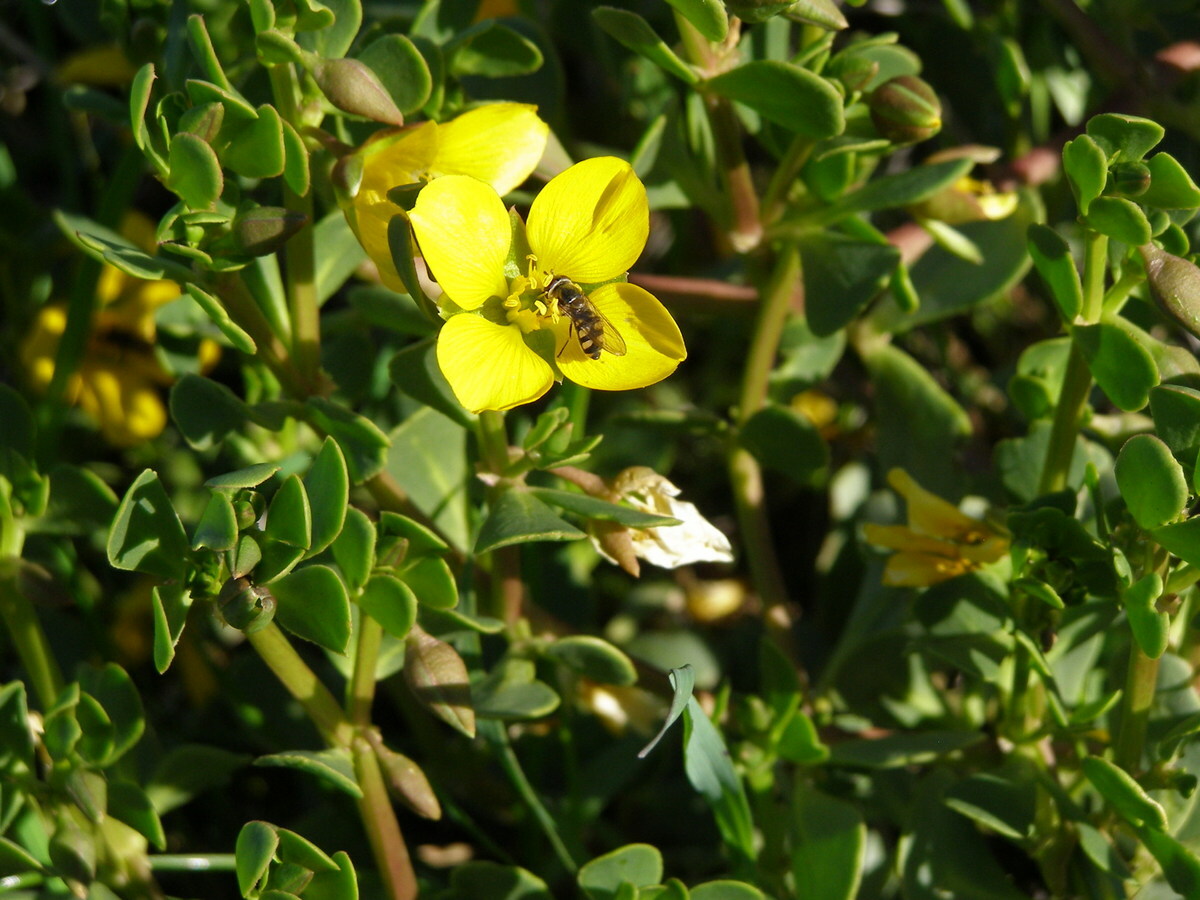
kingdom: Plantae
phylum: Tracheophyta
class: Magnoliopsida
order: Zygophyllales
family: Zygophyllaceae
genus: Roepera
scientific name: Roepera glauca
